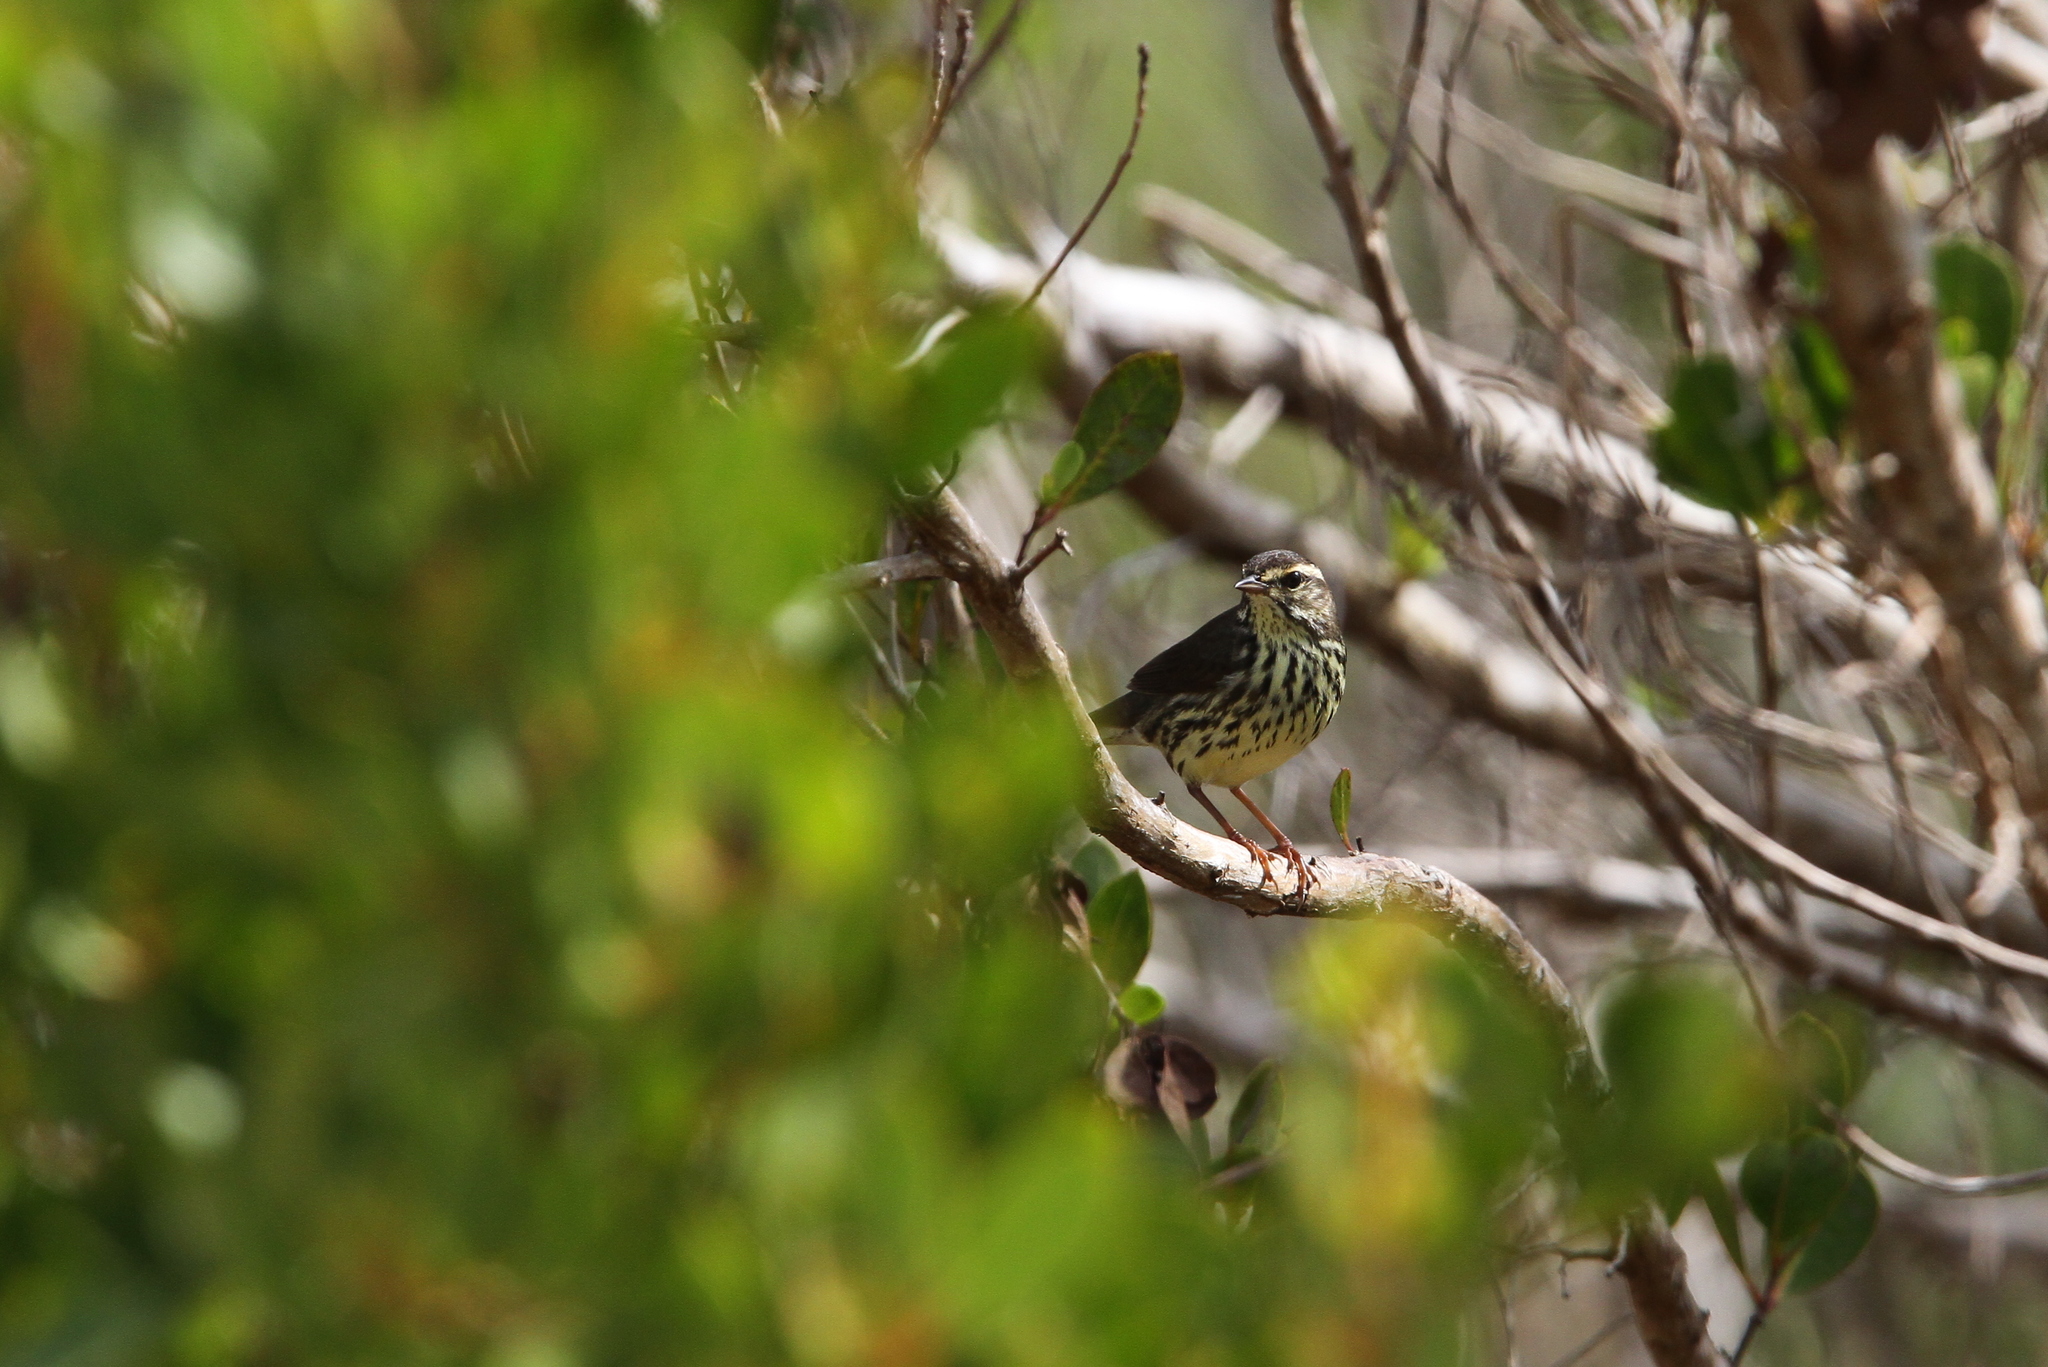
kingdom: Animalia
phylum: Chordata
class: Aves
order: Passeriformes
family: Parulidae
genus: Parkesia
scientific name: Parkesia noveboracensis
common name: Northern waterthrush
